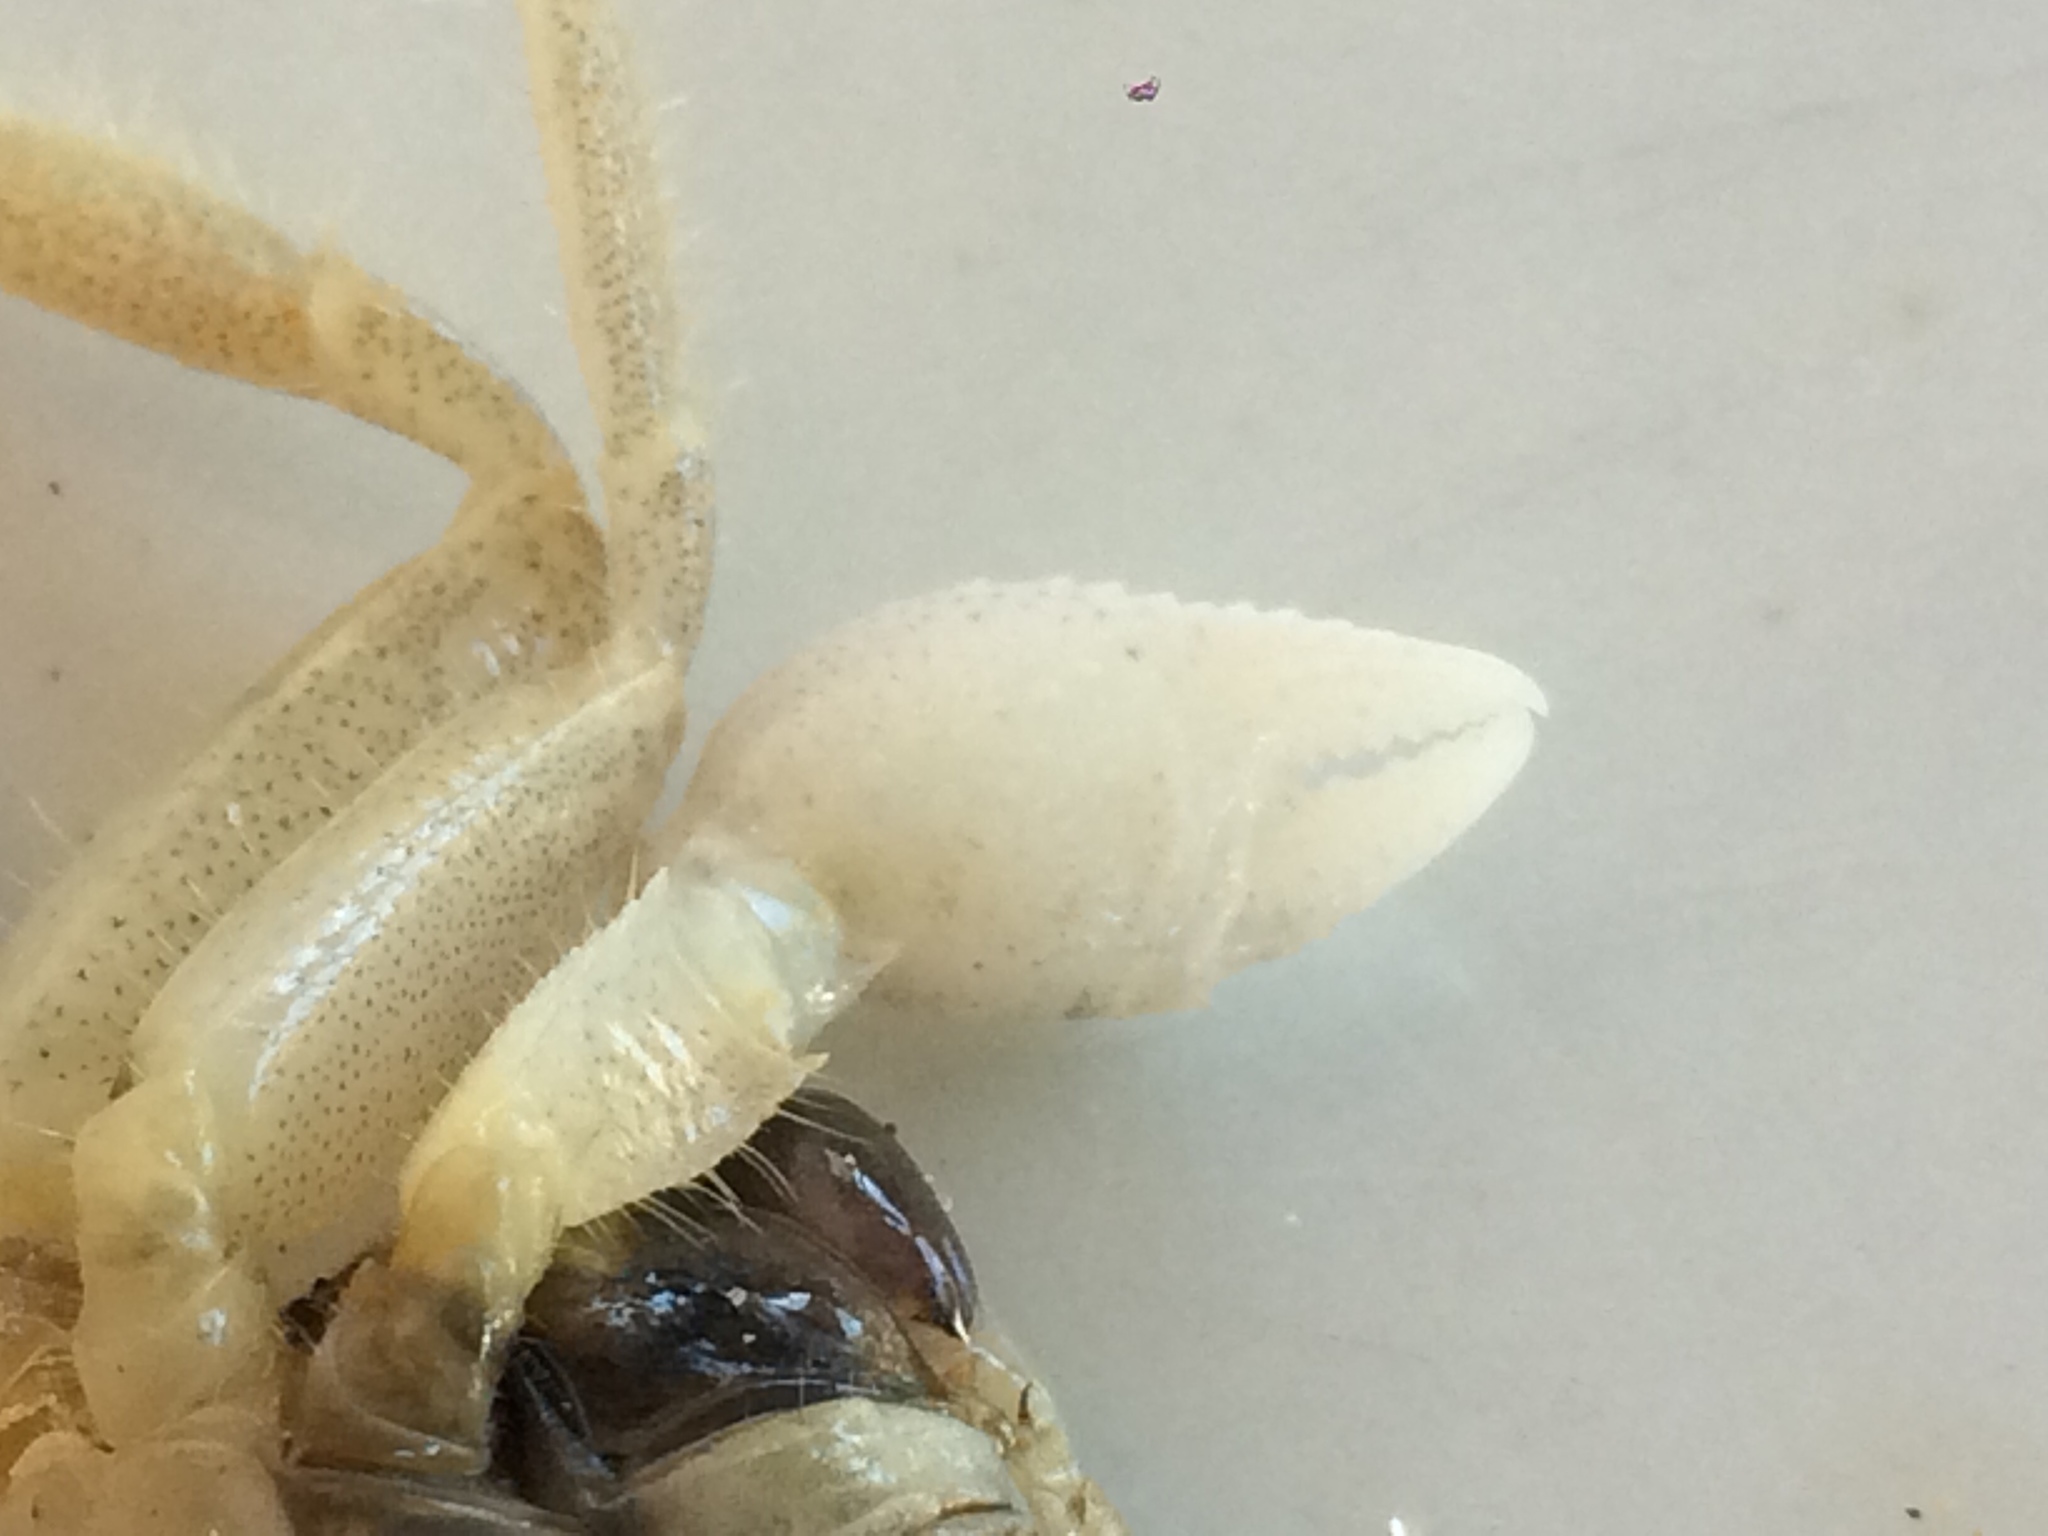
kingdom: Animalia
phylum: Arthropoda
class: Malacostraca
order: Decapoda
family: Ocypodidae
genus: Ocypode
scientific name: Ocypode quadrata
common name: Ghost crab
